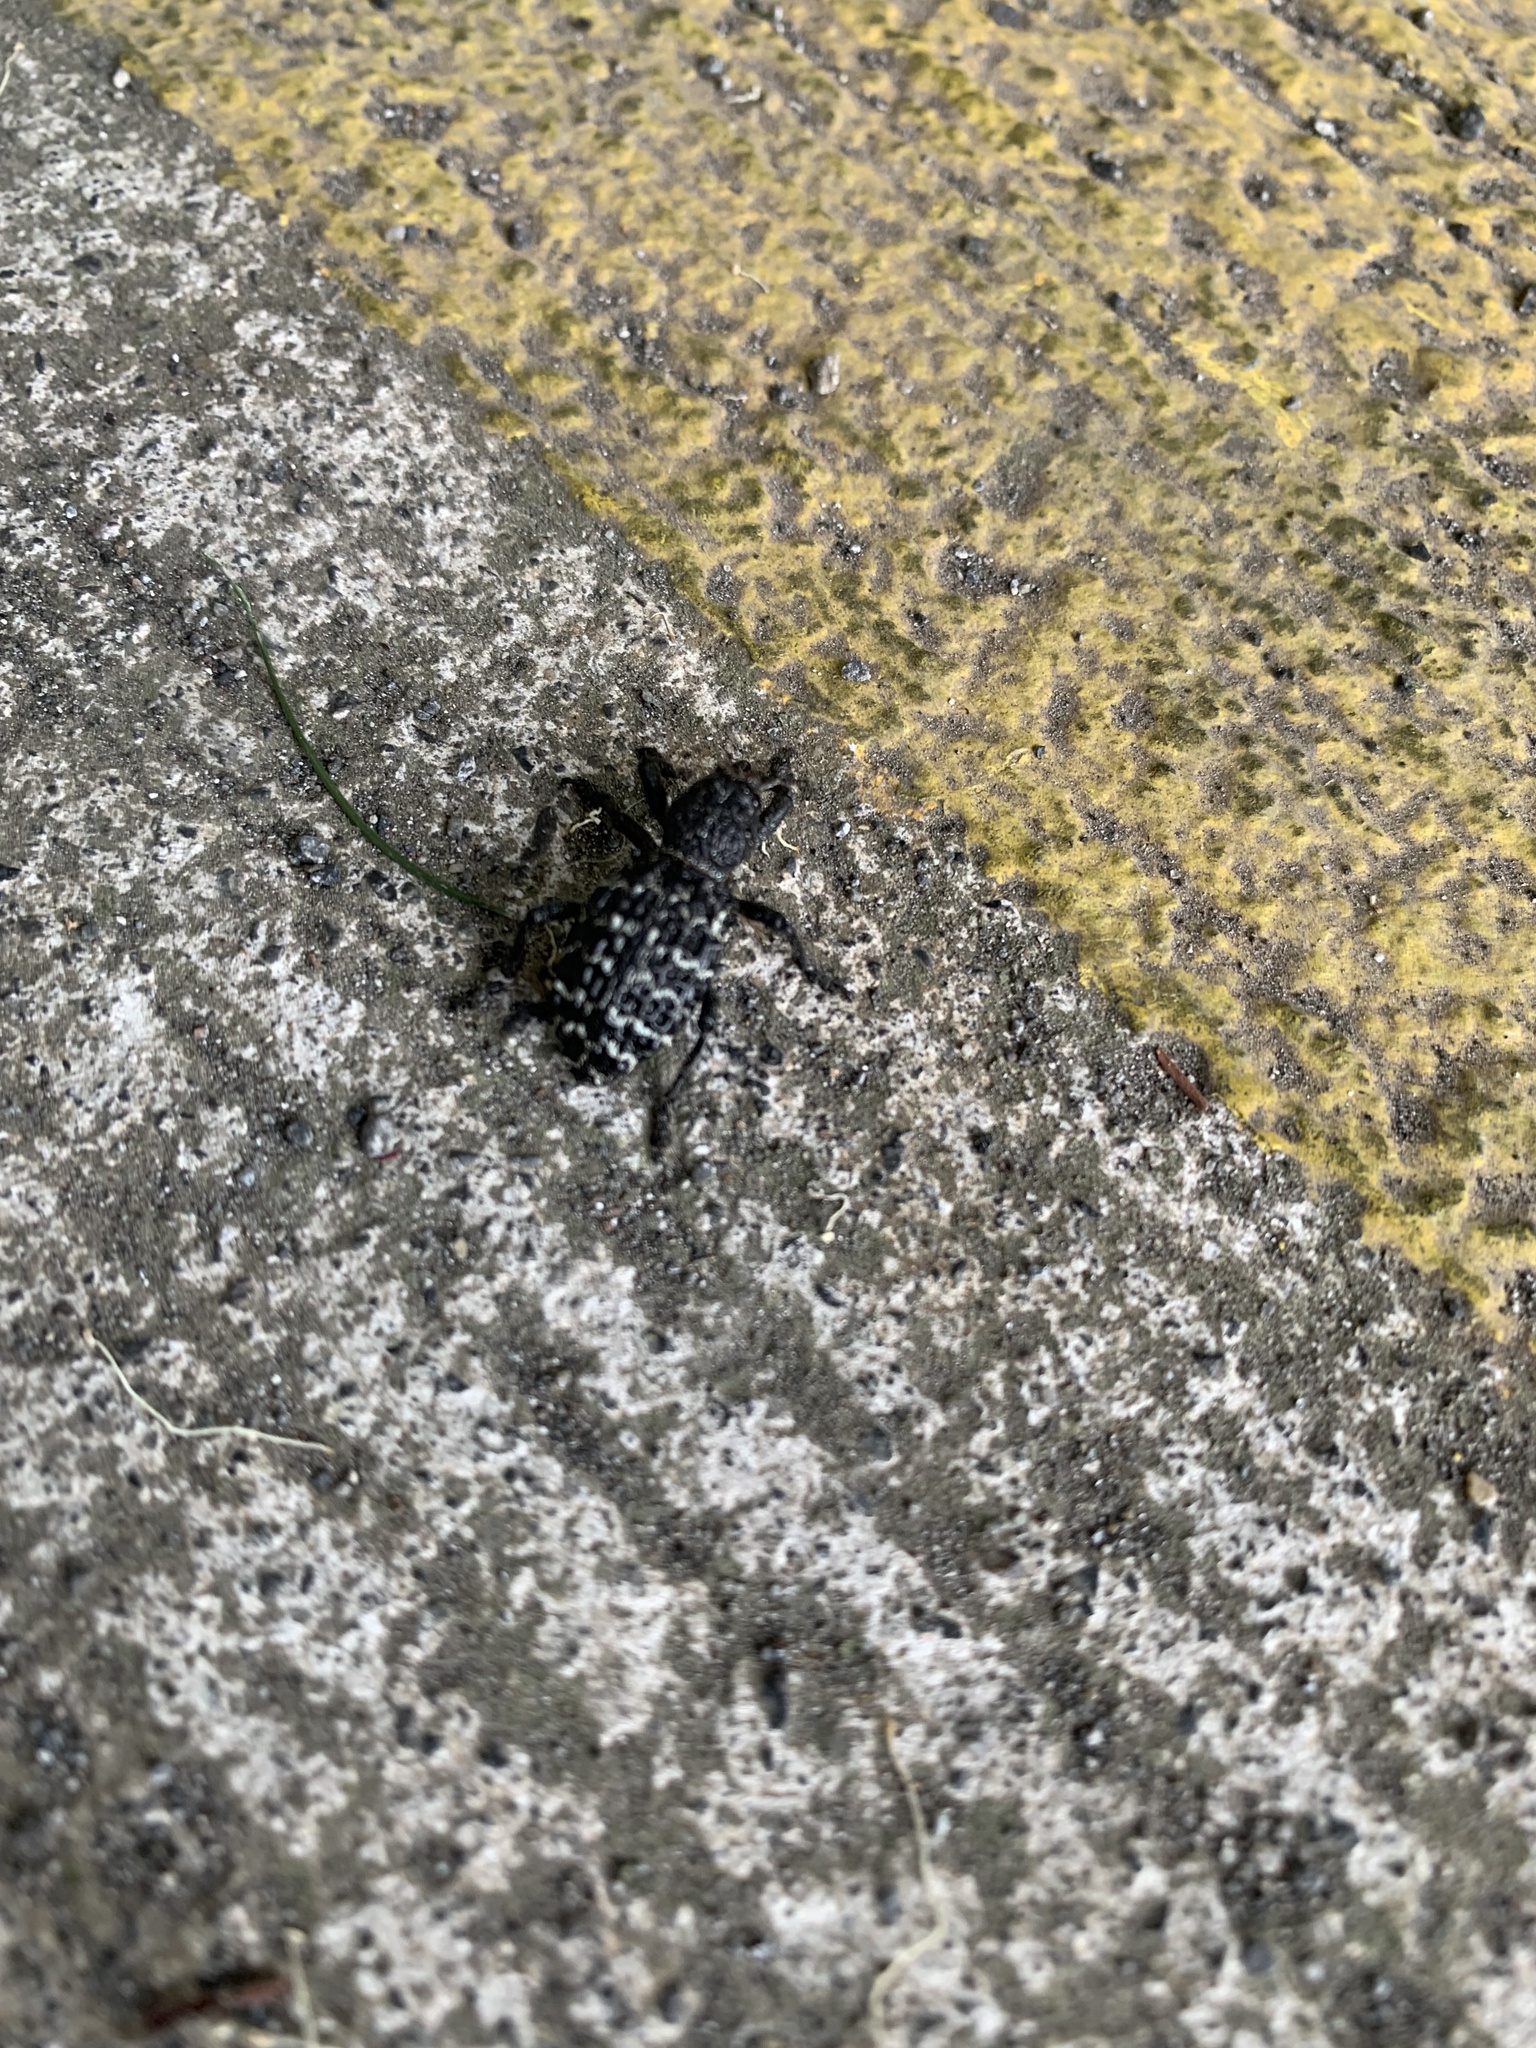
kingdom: Animalia
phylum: Arthropoda
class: Insecta
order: Coleoptera
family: Curculionidae
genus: Aegorhinus
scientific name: Aegorhinus superciliosus
